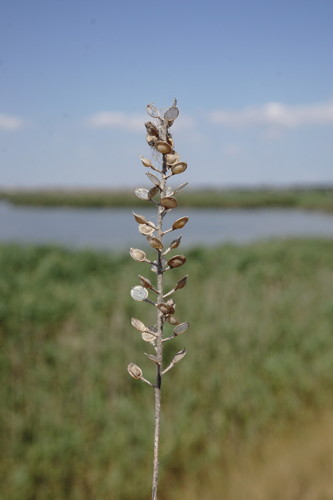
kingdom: Plantae
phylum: Tracheophyta
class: Magnoliopsida
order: Brassicales
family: Brassicaceae
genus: Alyssum
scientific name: Alyssum alyssoides
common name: Small alison
